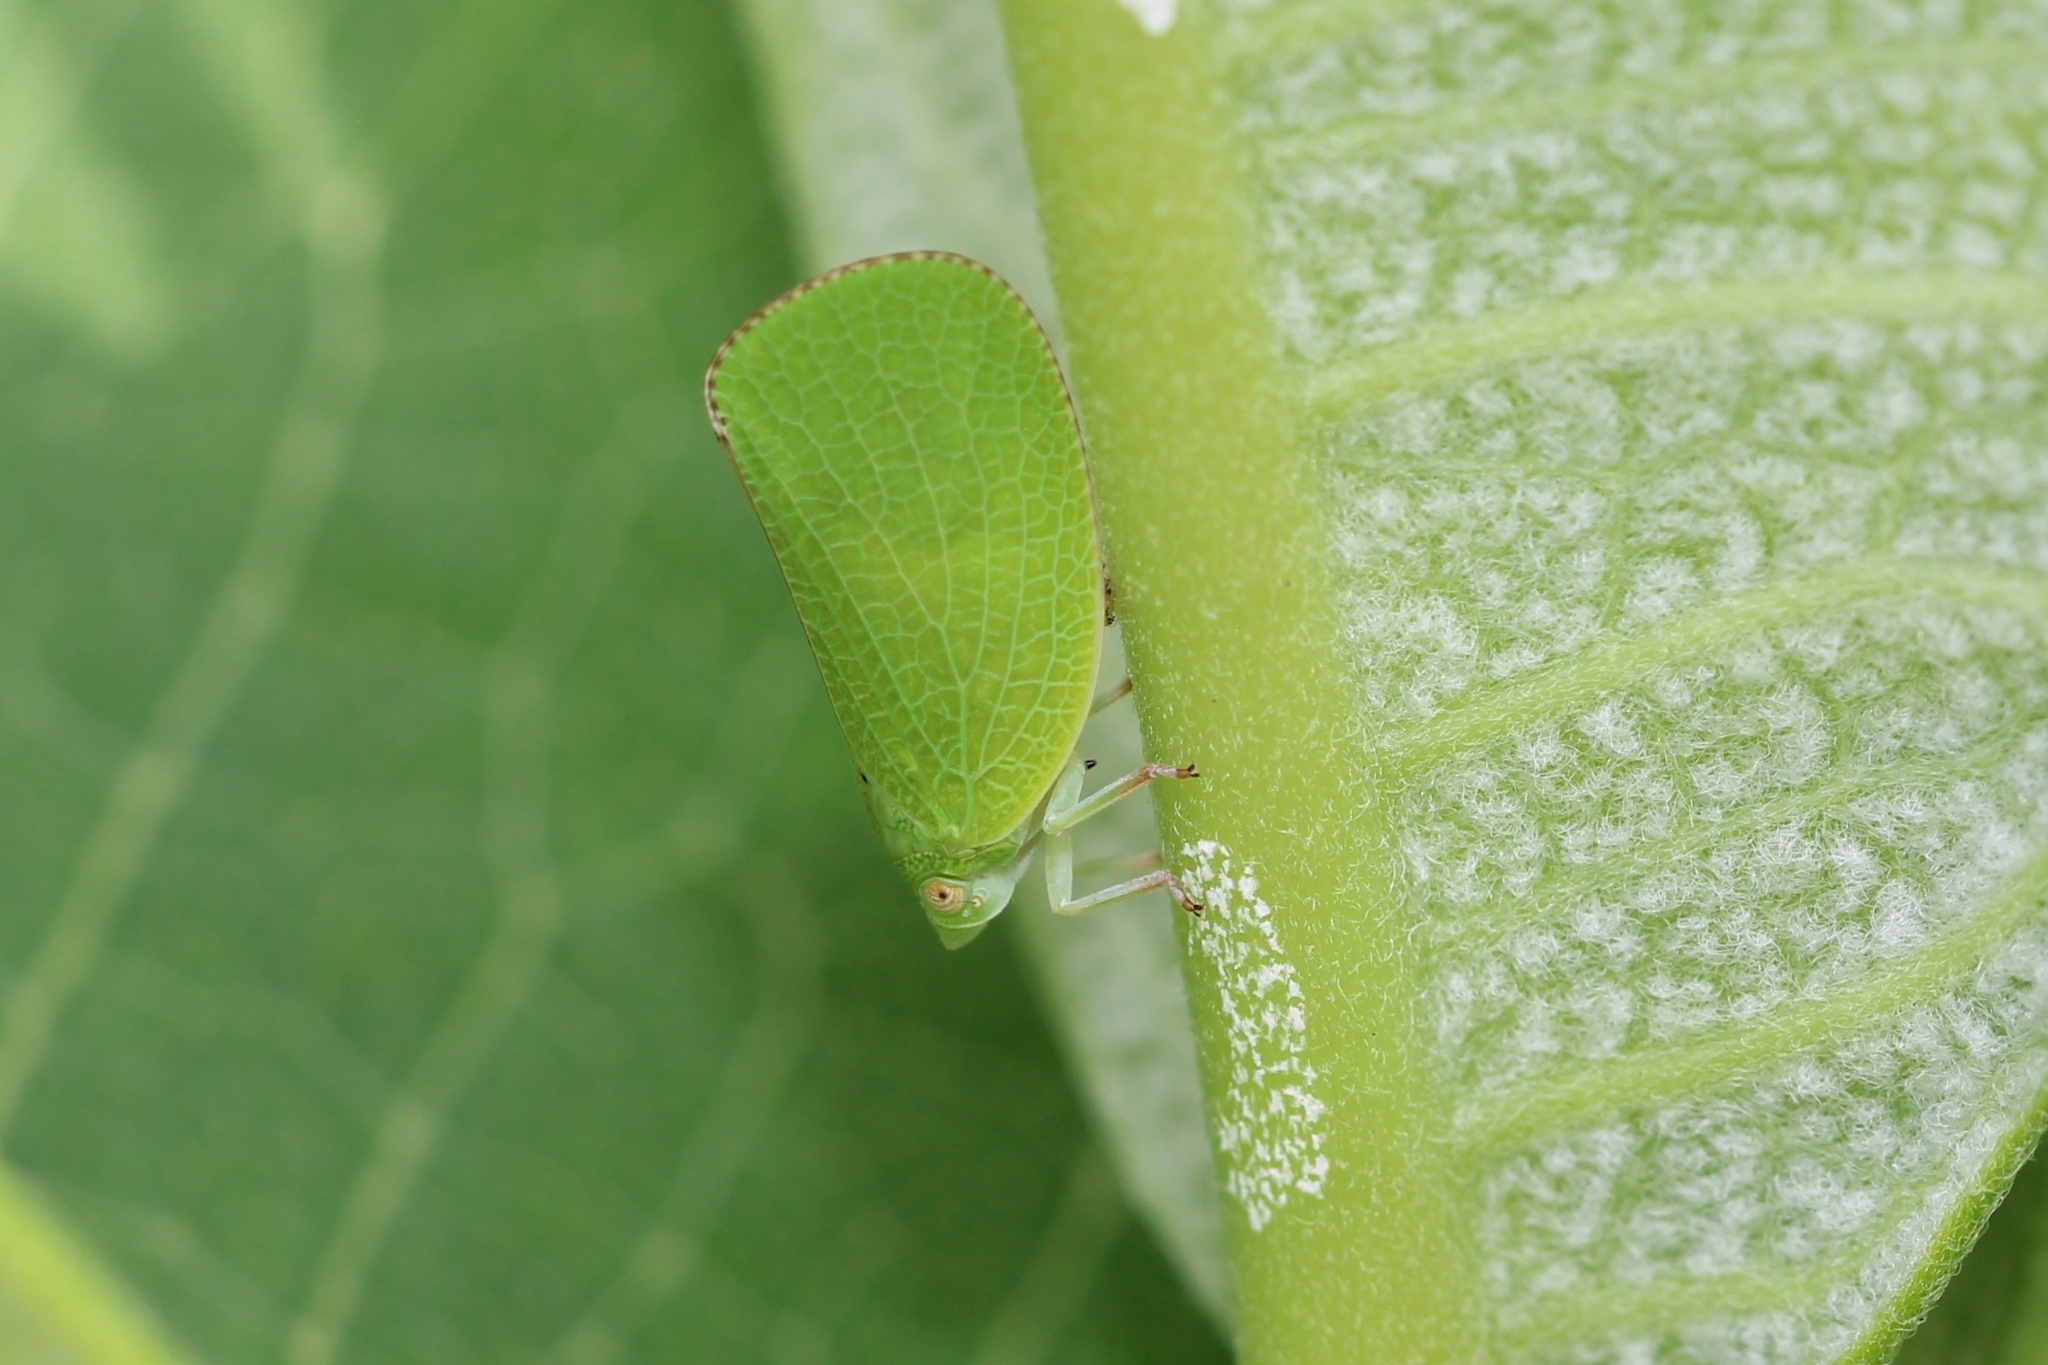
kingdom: Animalia
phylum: Arthropoda
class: Insecta
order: Hemiptera
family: Acanaloniidae
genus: Acanalonia
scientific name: Acanalonia conica
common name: Green cone-headed planthopper
